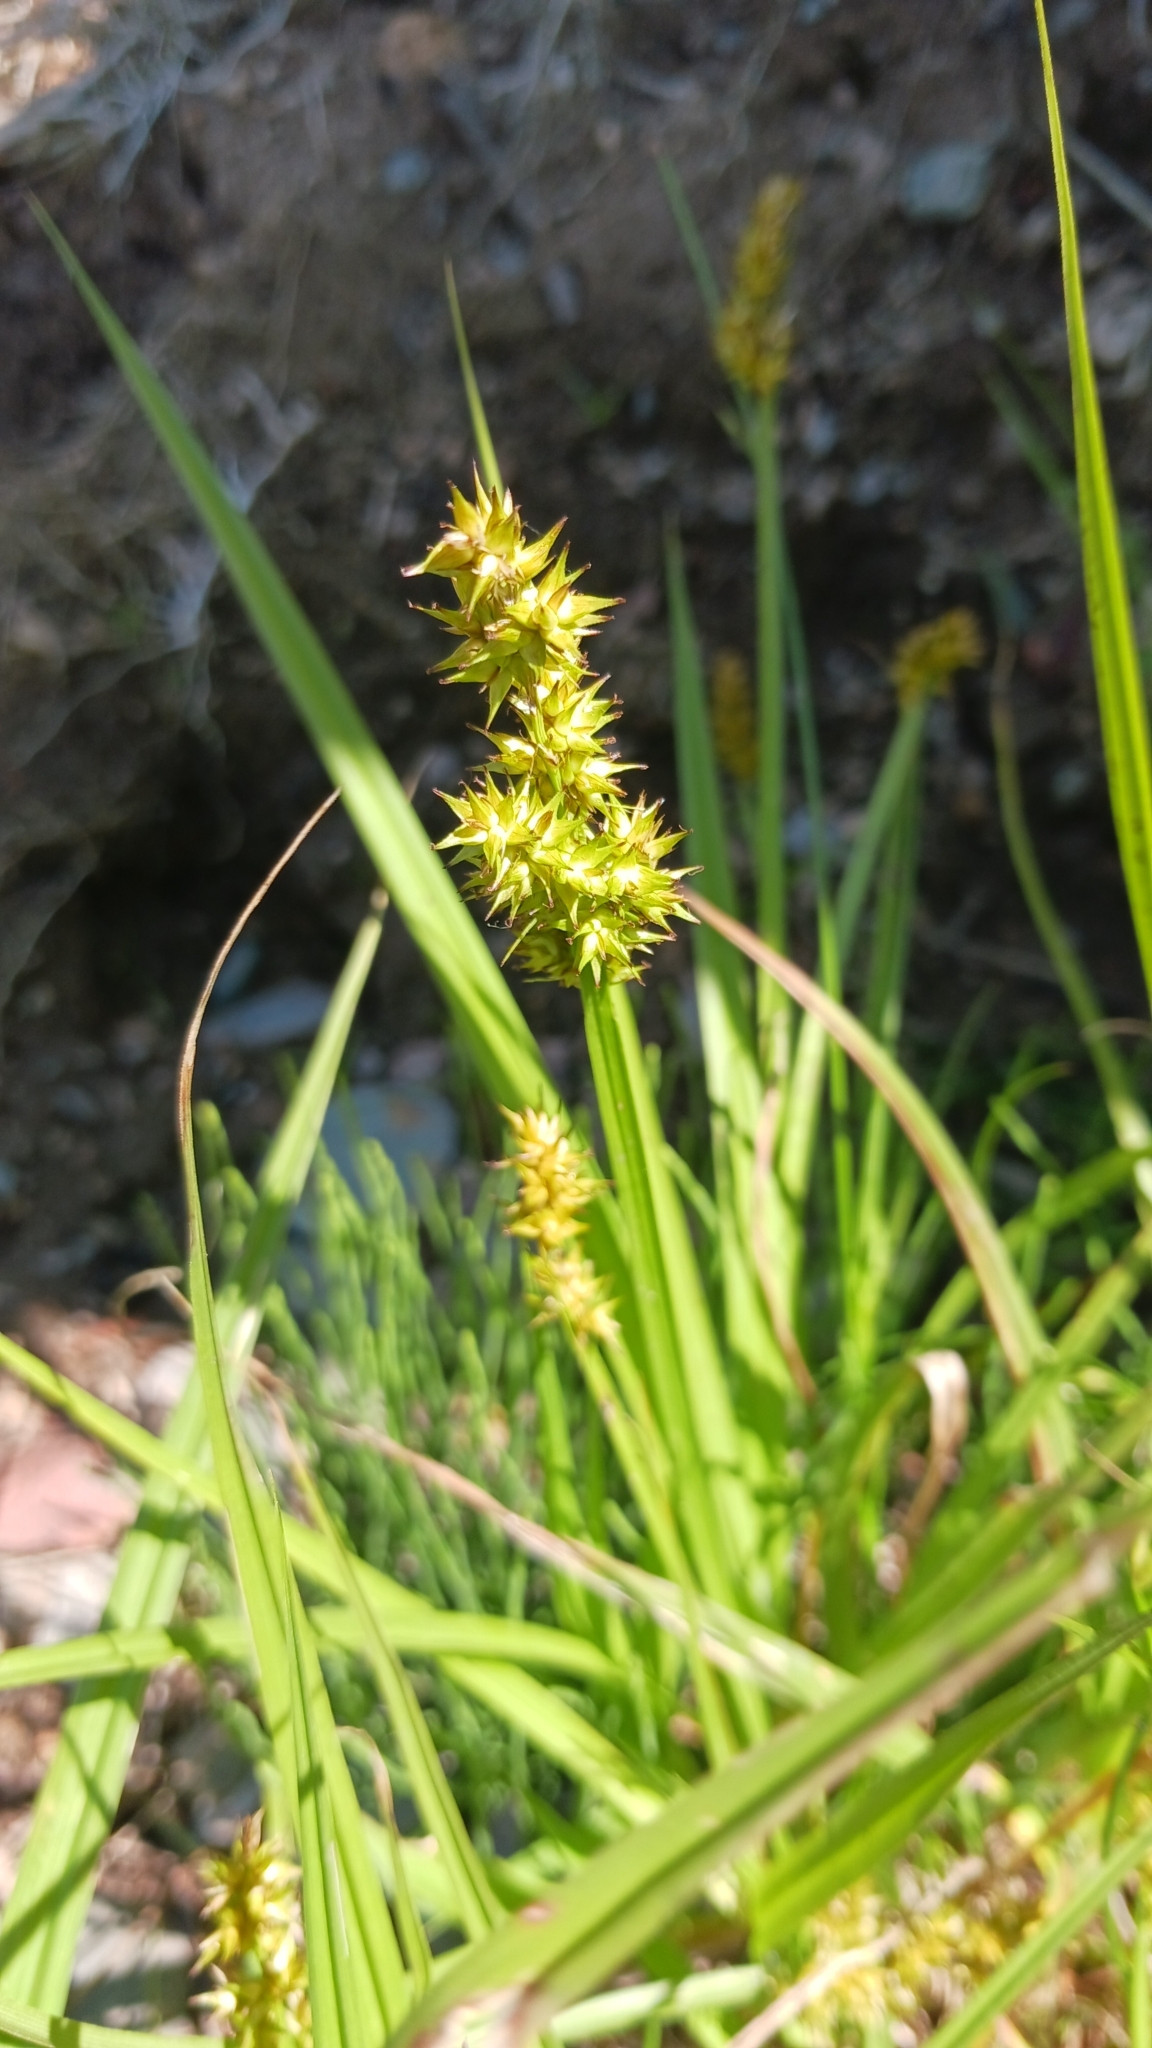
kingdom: Plantae
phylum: Tracheophyta
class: Liliopsida
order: Poales
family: Cyperaceae
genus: Carex
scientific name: Carex stipata
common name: Awl-fruited sedge
